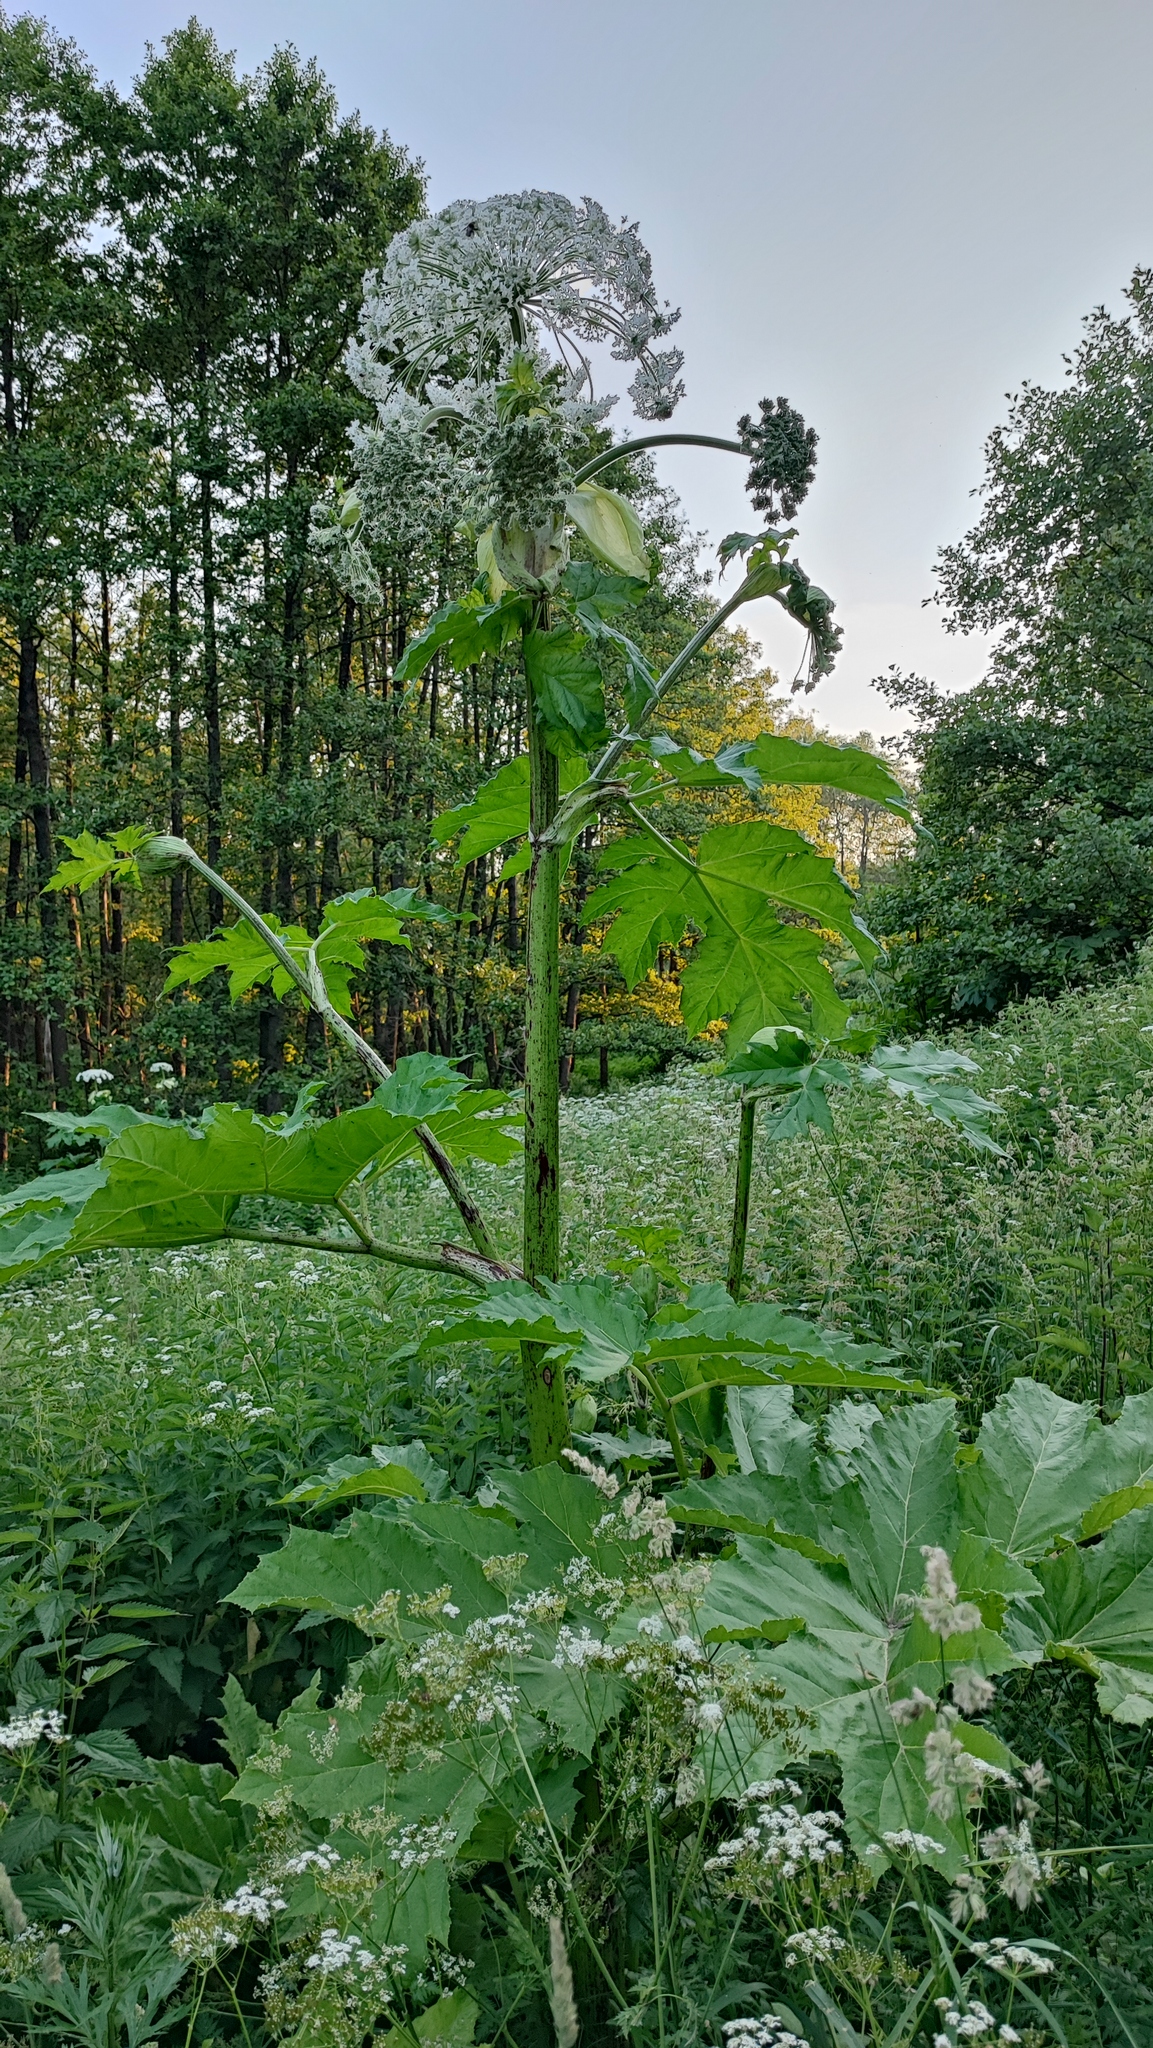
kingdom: Plantae
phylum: Tracheophyta
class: Magnoliopsida
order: Apiales
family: Apiaceae
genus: Heracleum
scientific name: Heracleum sosnowskyi
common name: Sosnowsky's hogweed
